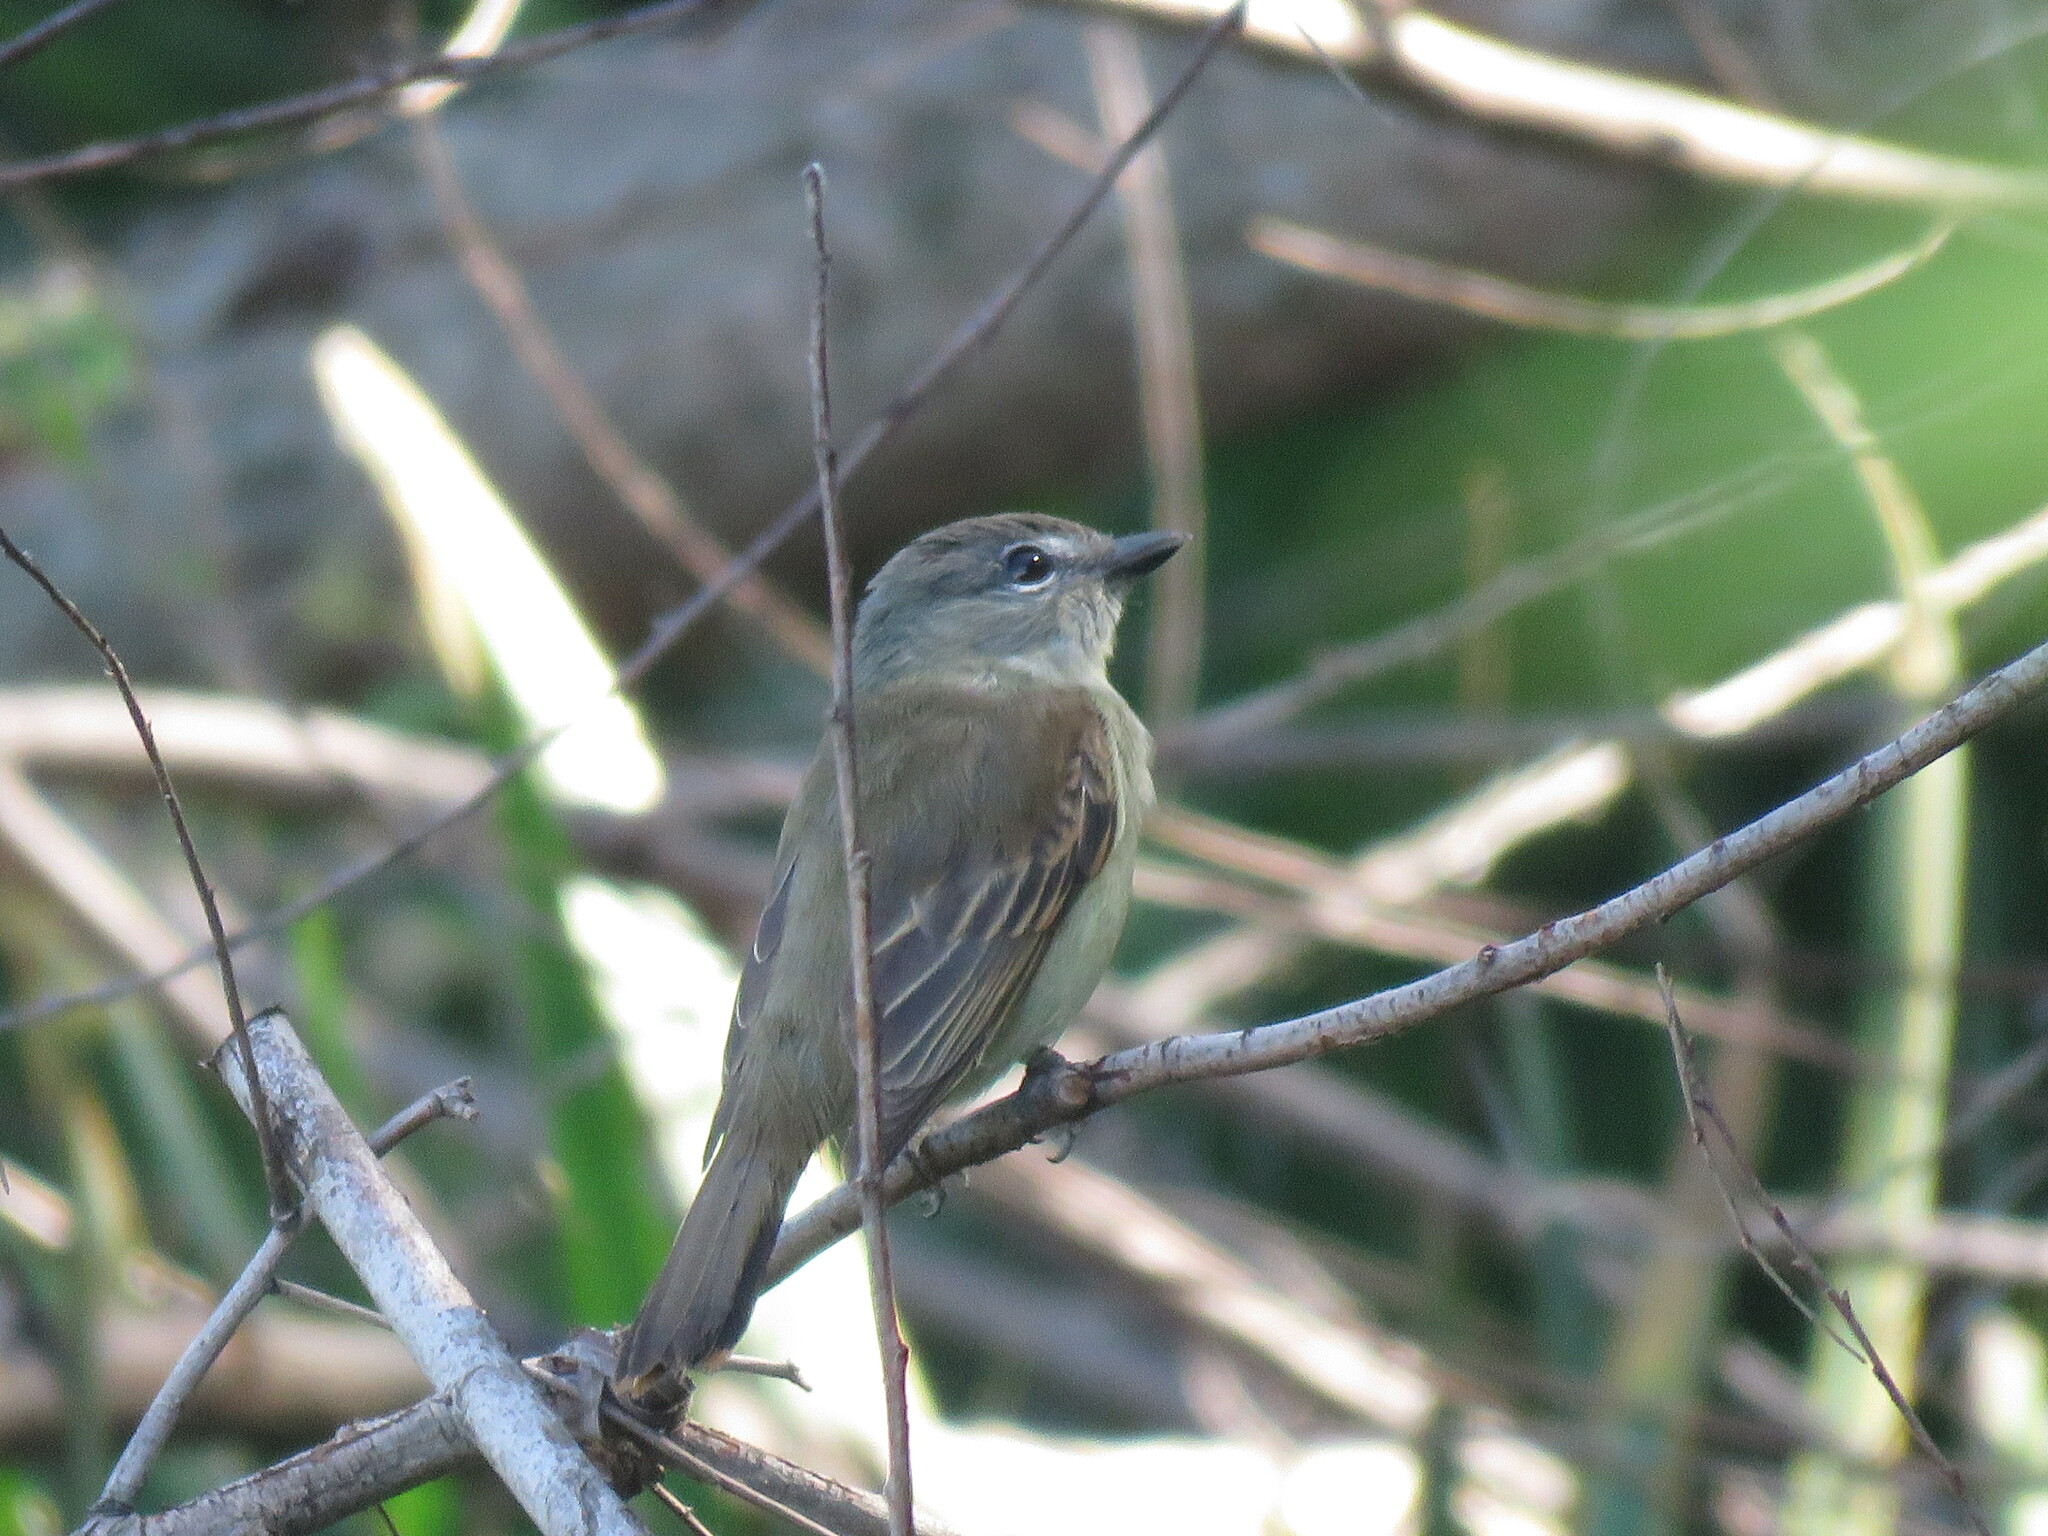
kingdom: Animalia
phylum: Chordata
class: Aves
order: Passeriformes
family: Cotingidae
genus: Pachyramphus
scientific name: Pachyramphus polychopterus
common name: White-winged becard
